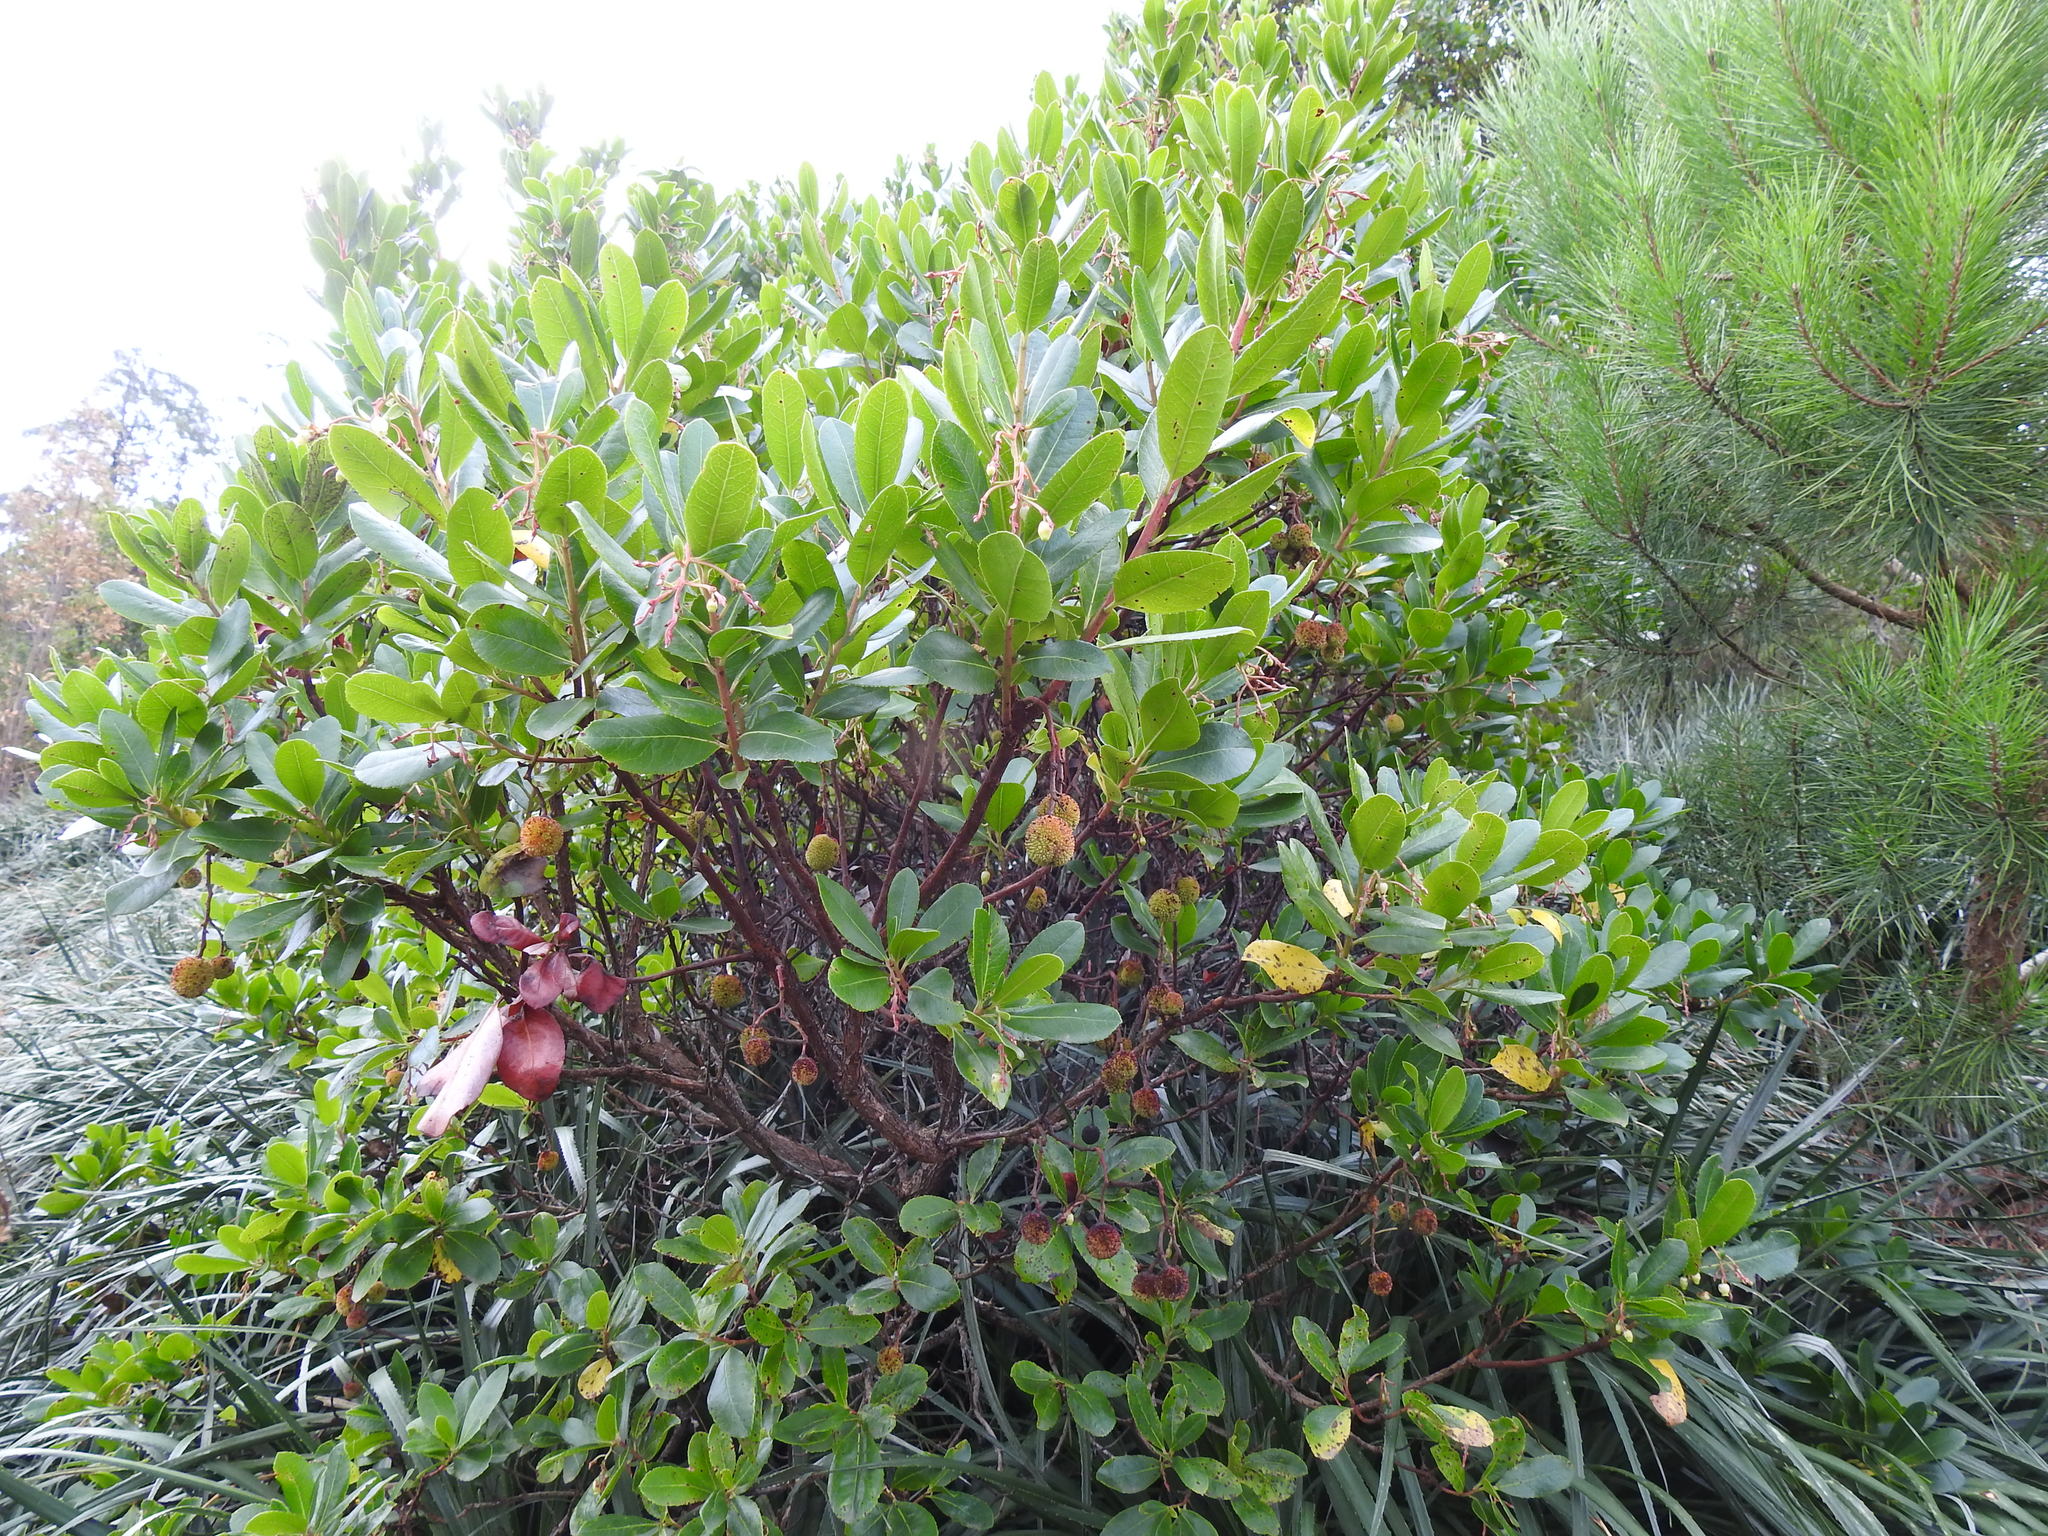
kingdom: Plantae
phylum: Tracheophyta
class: Magnoliopsida
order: Ericales
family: Ericaceae
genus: Arbutus
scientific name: Arbutus unedo
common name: Strawberry-tree
